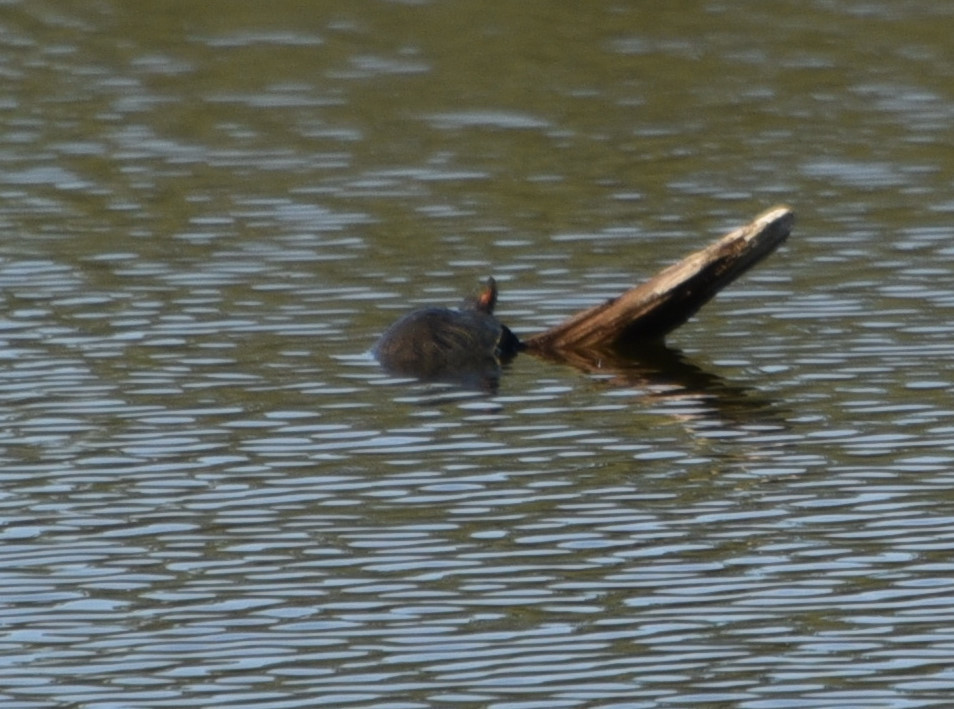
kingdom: Animalia
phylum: Chordata
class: Testudines
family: Emydidae
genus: Trachemys
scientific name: Trachemys scripta
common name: Slider
